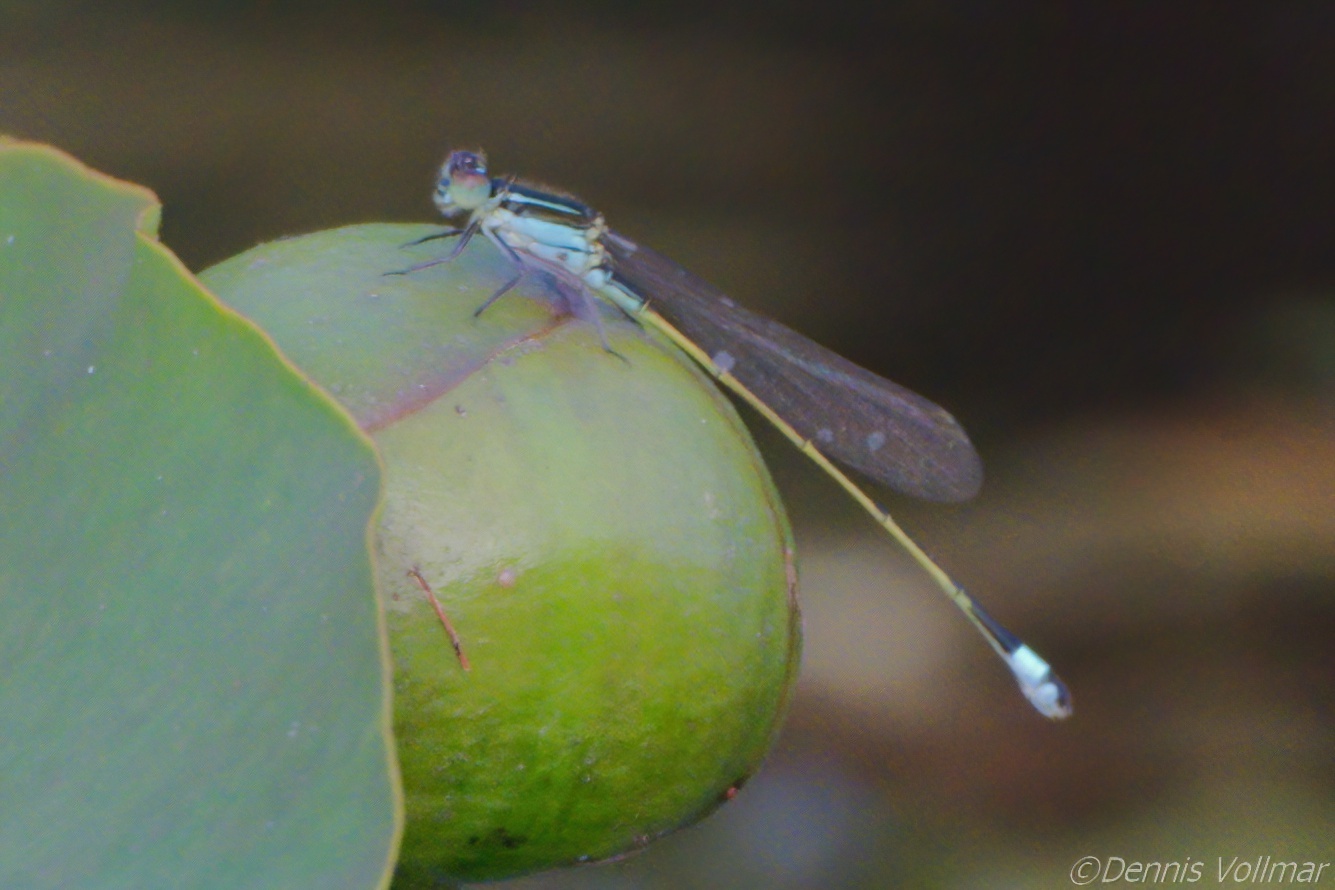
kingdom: Animalia
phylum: Arthropoda
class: Insecta
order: Odonata
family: Coenagrionidae
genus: Ischnura
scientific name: Ischnura ramburii
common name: Rambur's forktail
